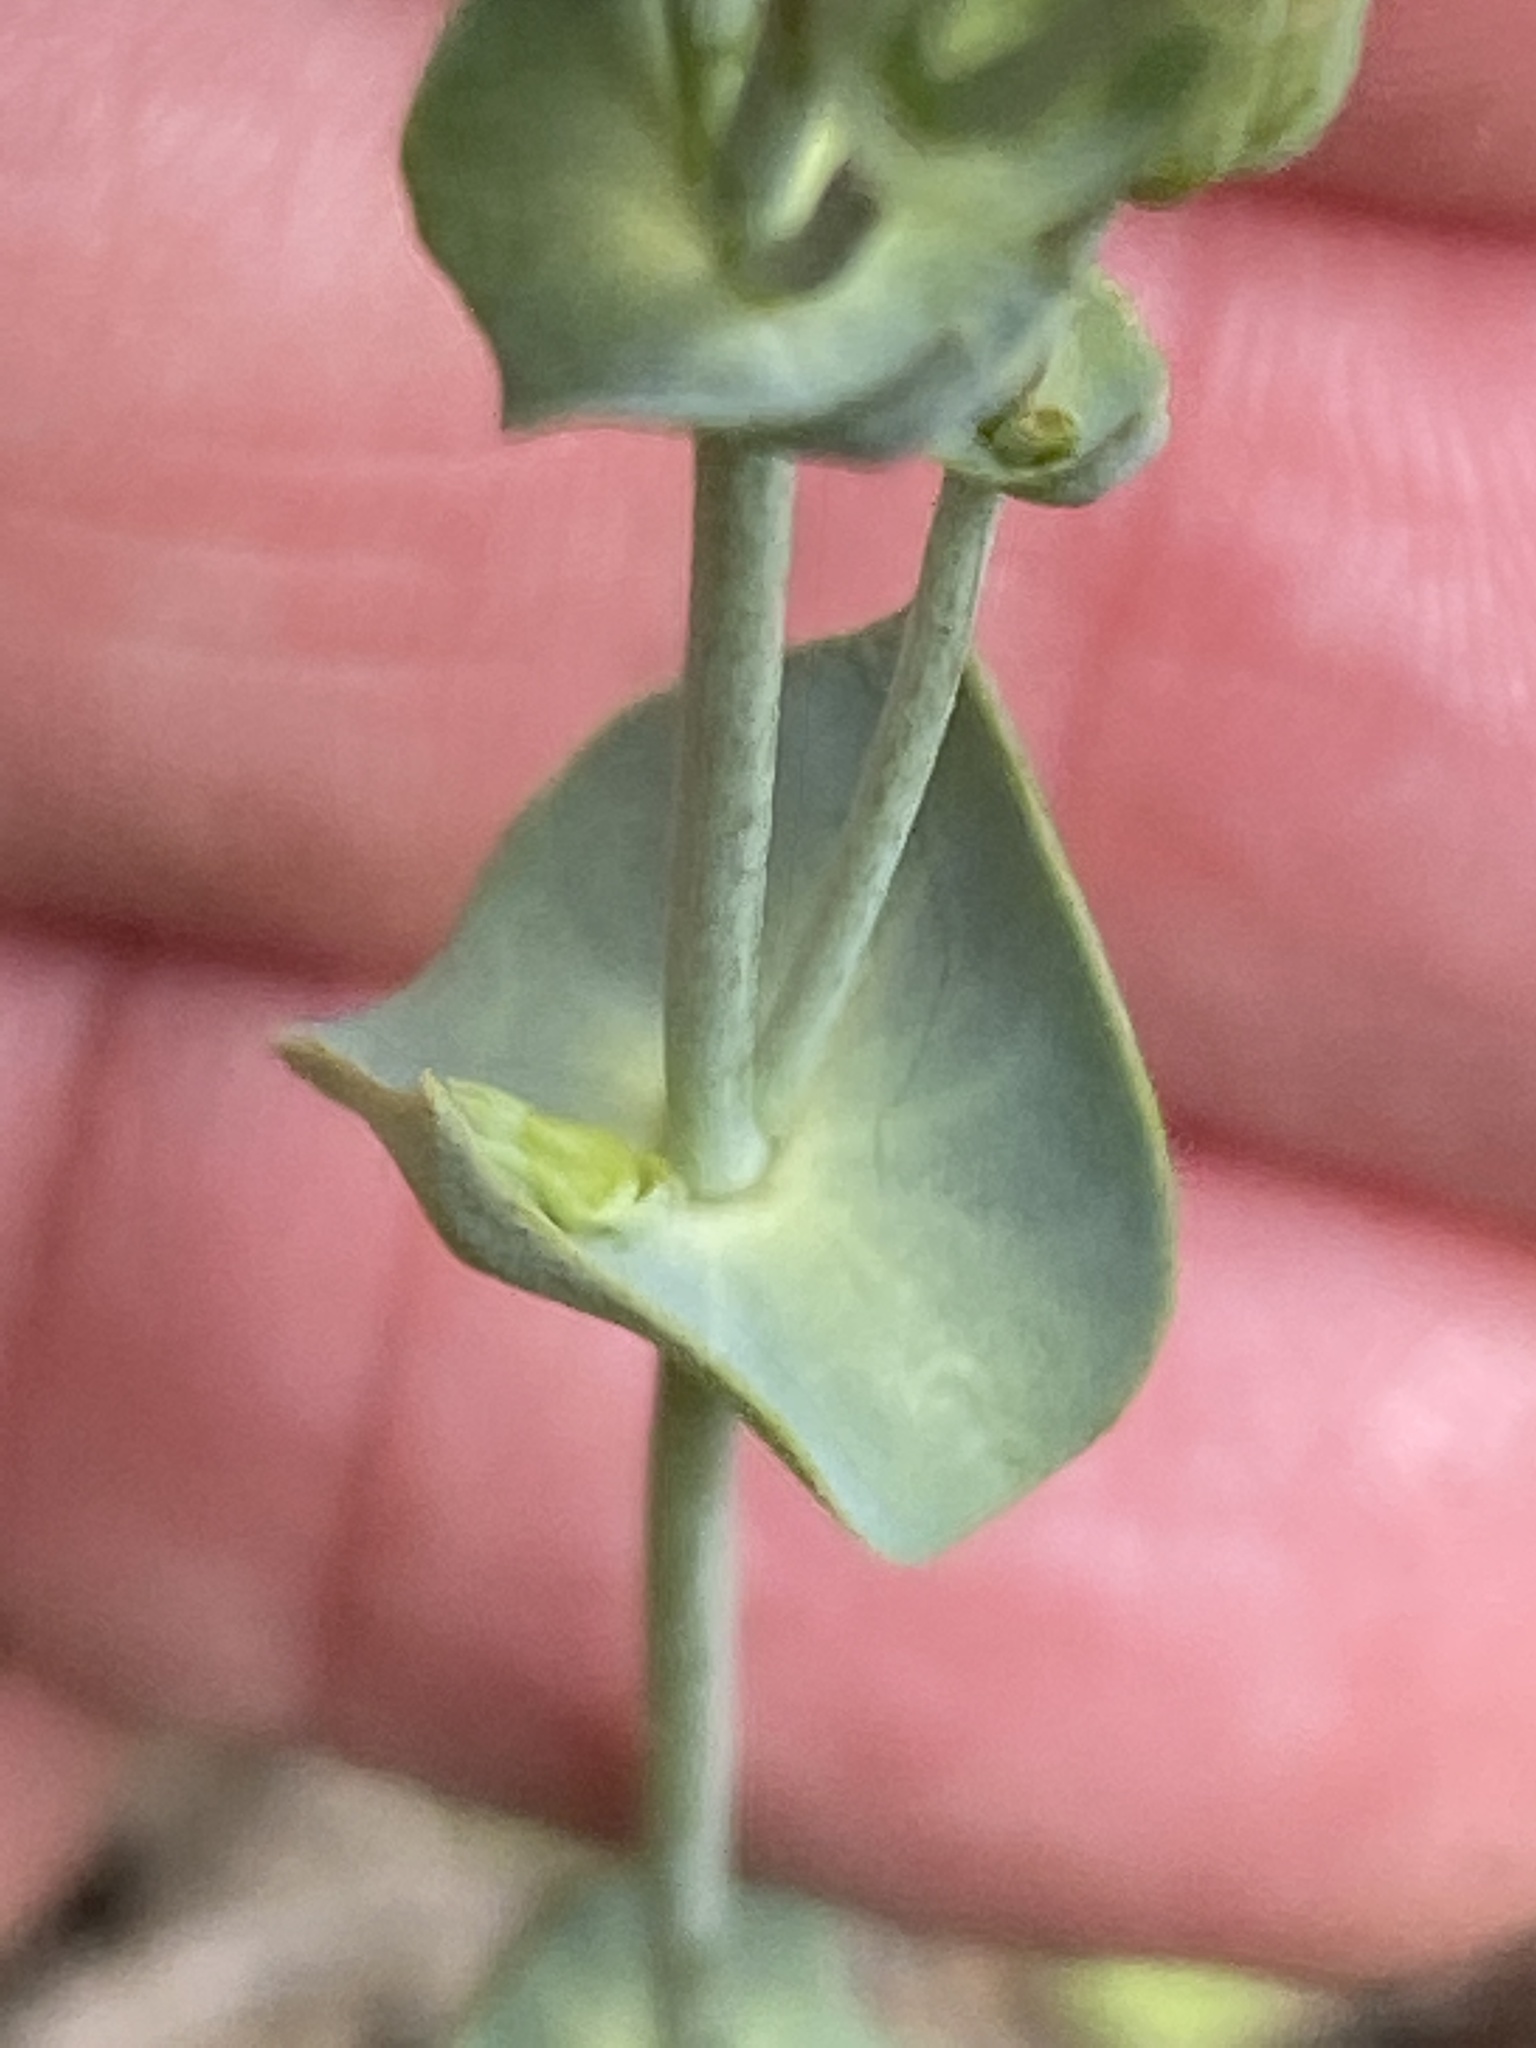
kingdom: Plantae
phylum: Tracheophyta
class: Magnoliopsida
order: Gentianales
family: Gentianaceae
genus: Blackstonia
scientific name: Blackstonia perfoliata
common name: Yellow-wort
